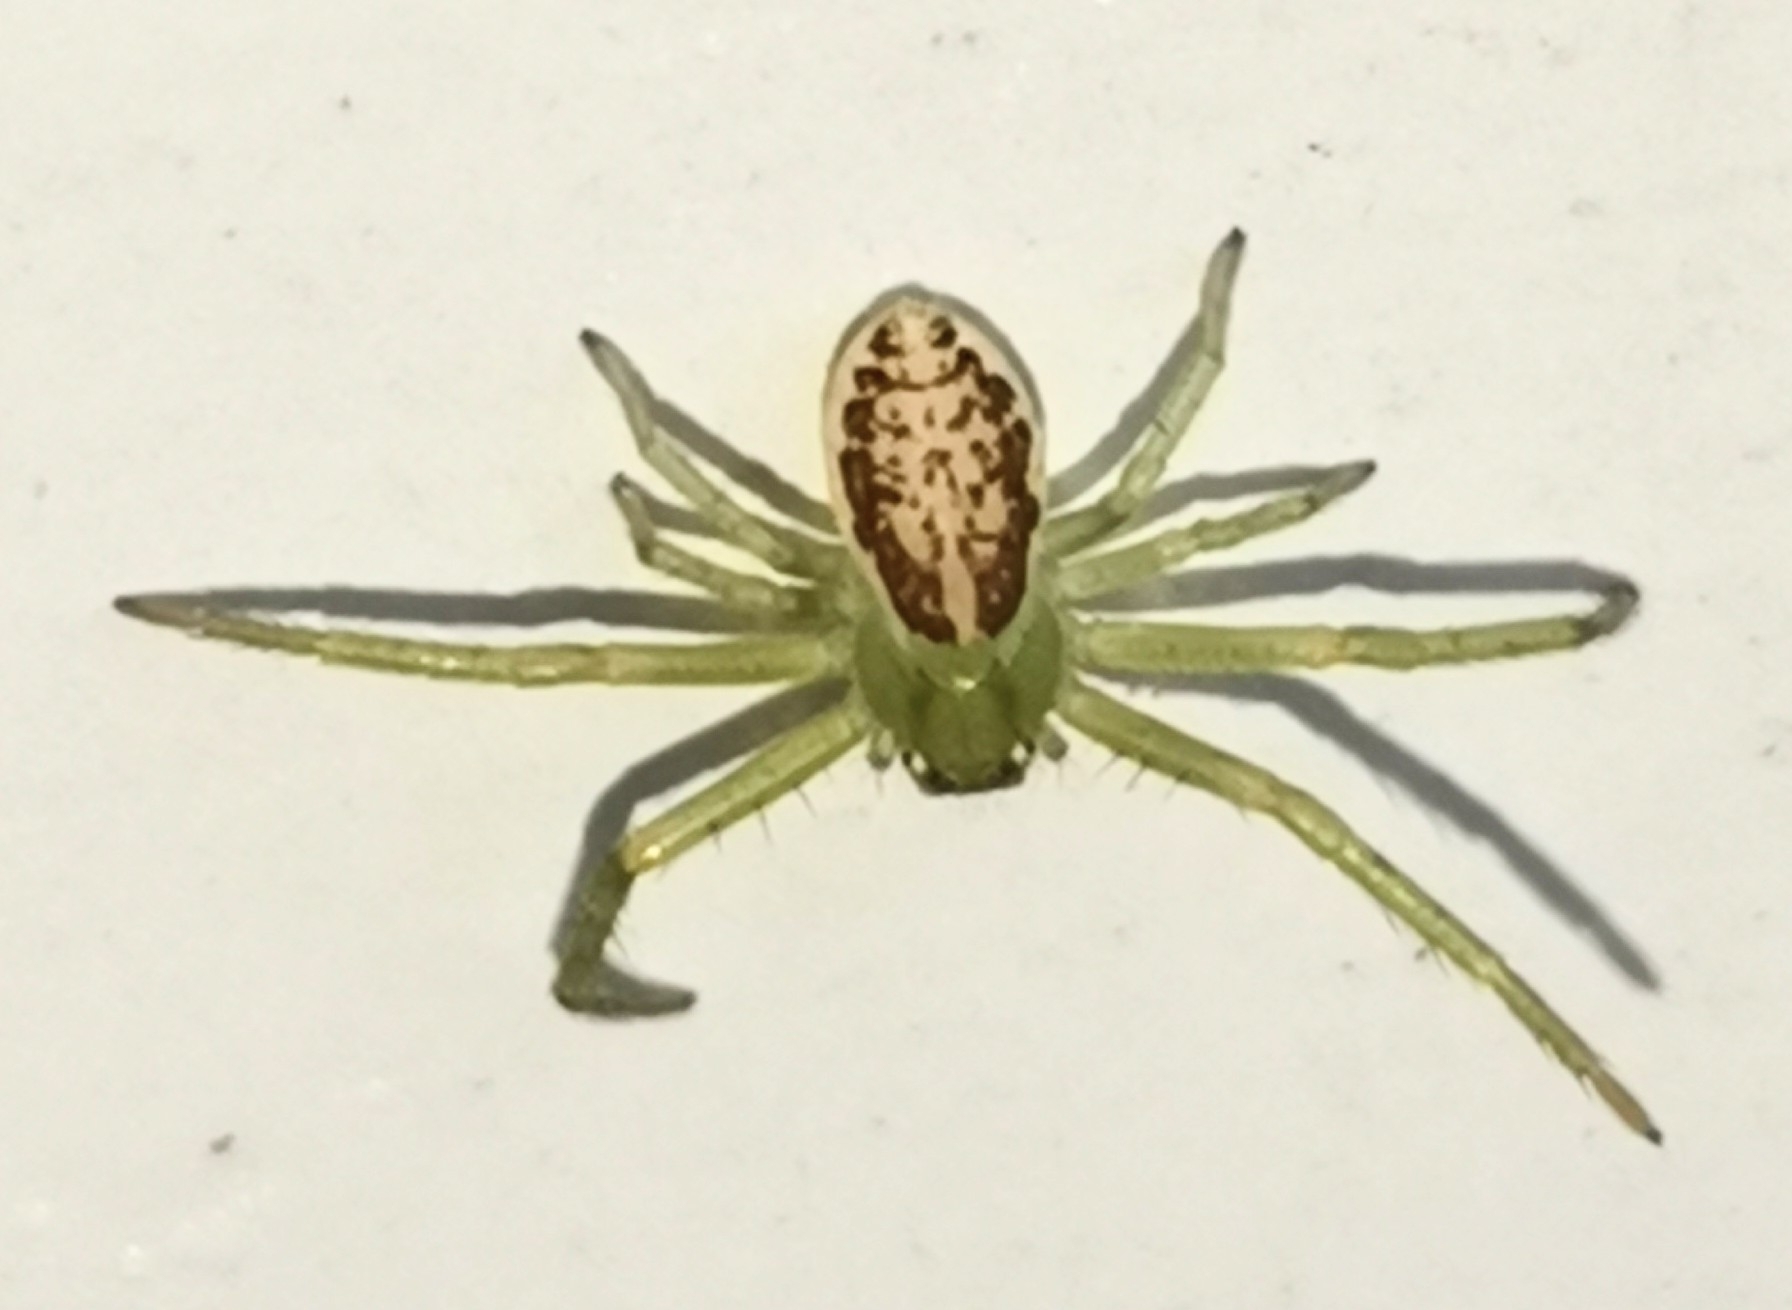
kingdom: Animalia
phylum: Arthropoda
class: Arachnida
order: Araneae
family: Thomisidae
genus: Diaea
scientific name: Diaea dorsata
